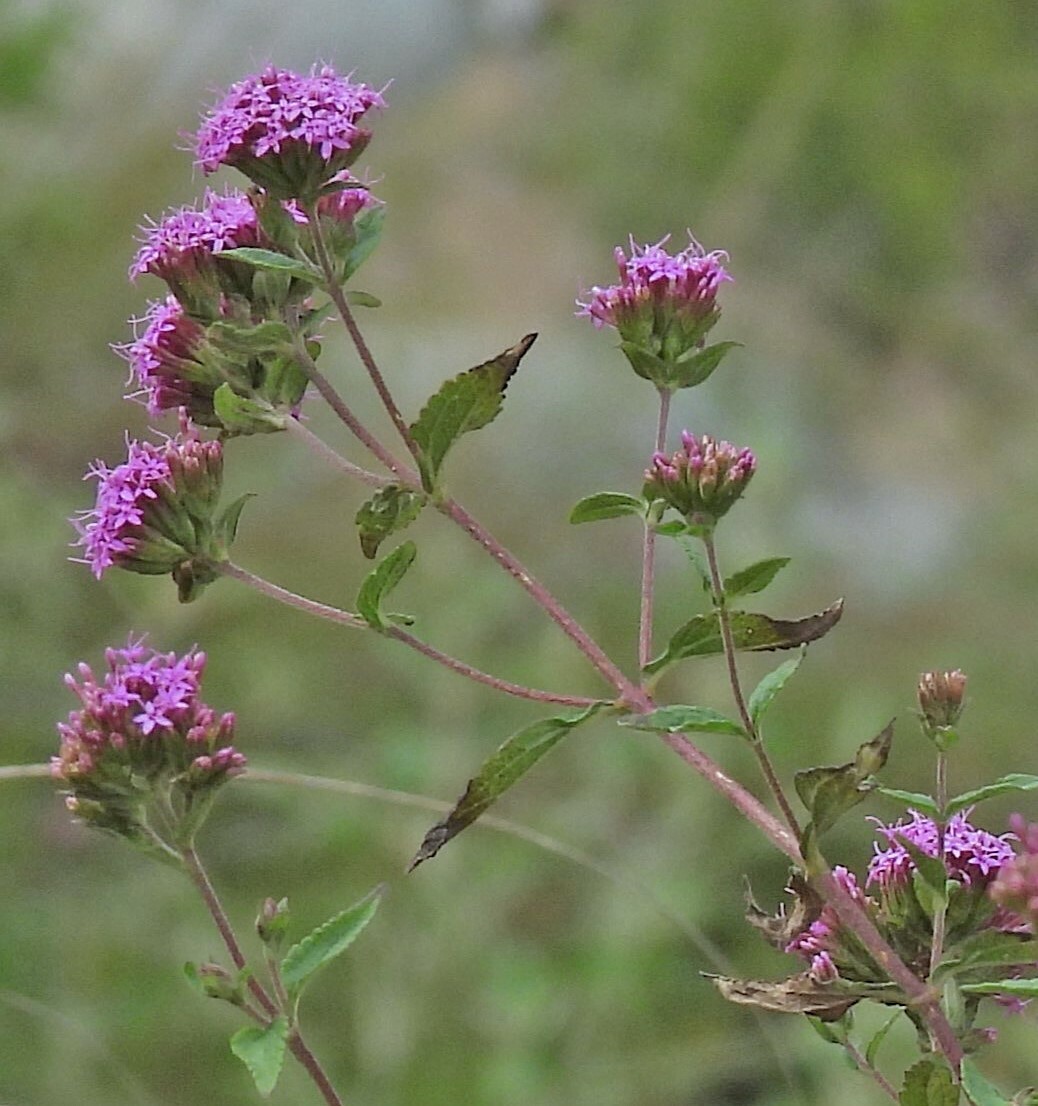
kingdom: Plantae
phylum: Tracheophyta
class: Magnoliopsida
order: Asterales
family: Asteraceae
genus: Stevia
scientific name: Stevia sanguinea
